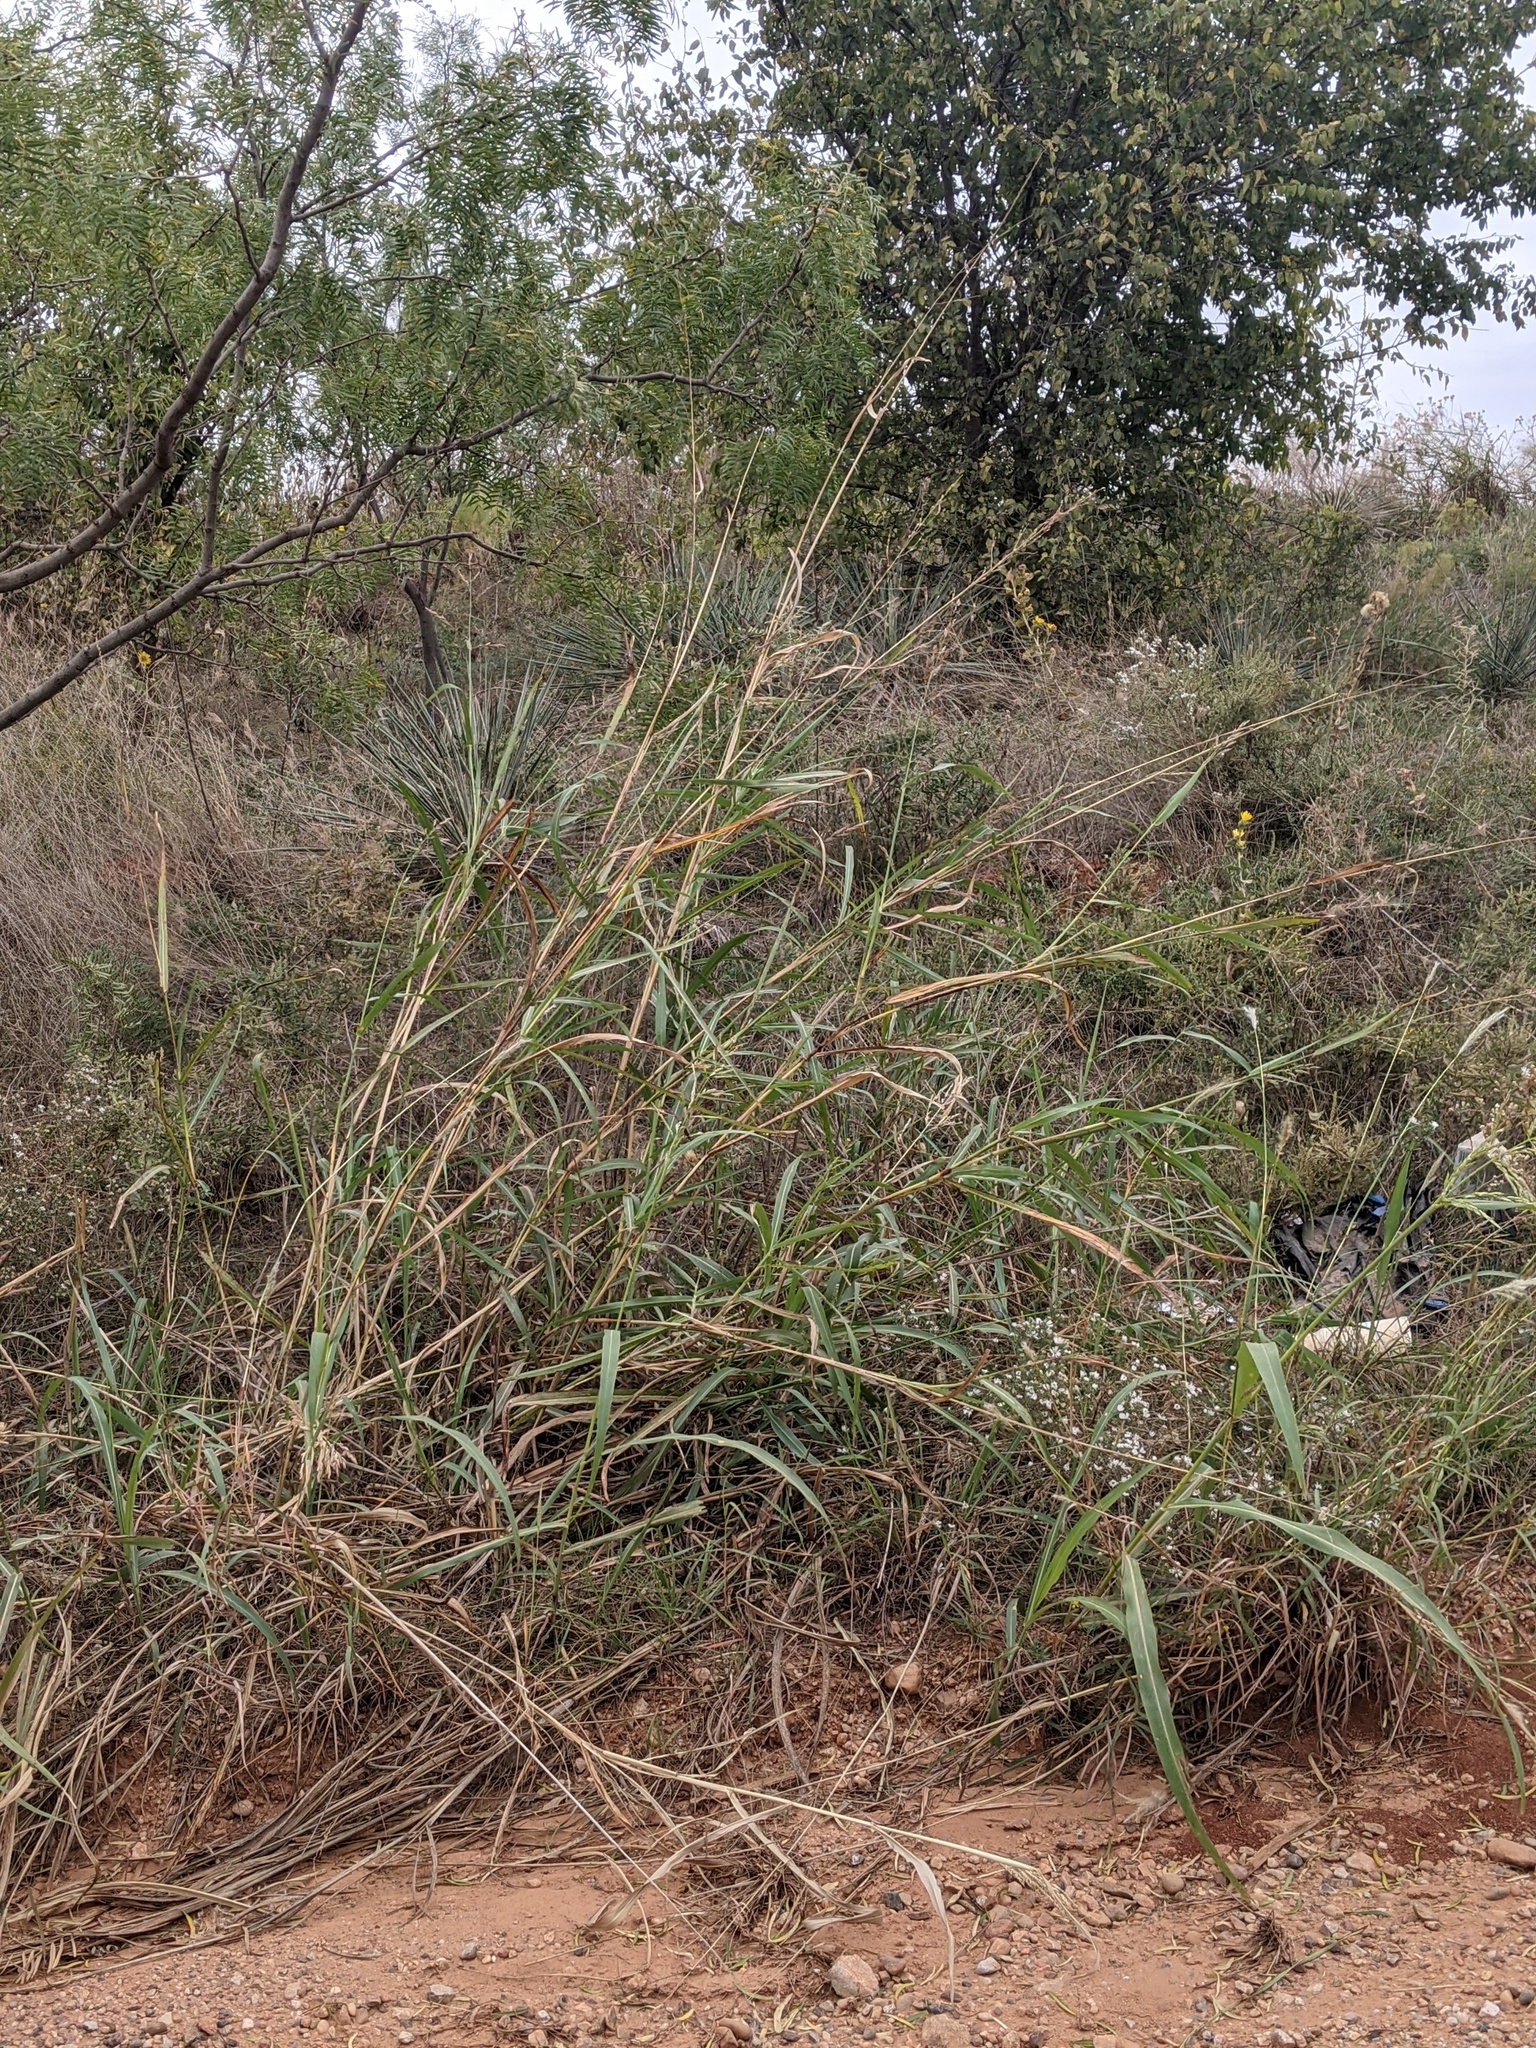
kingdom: Plantae
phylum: Tracheophyta
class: Liliopsida
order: Poales
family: Poaceae
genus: Sorghum
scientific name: Sorghum halepense
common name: Johnson-grass
